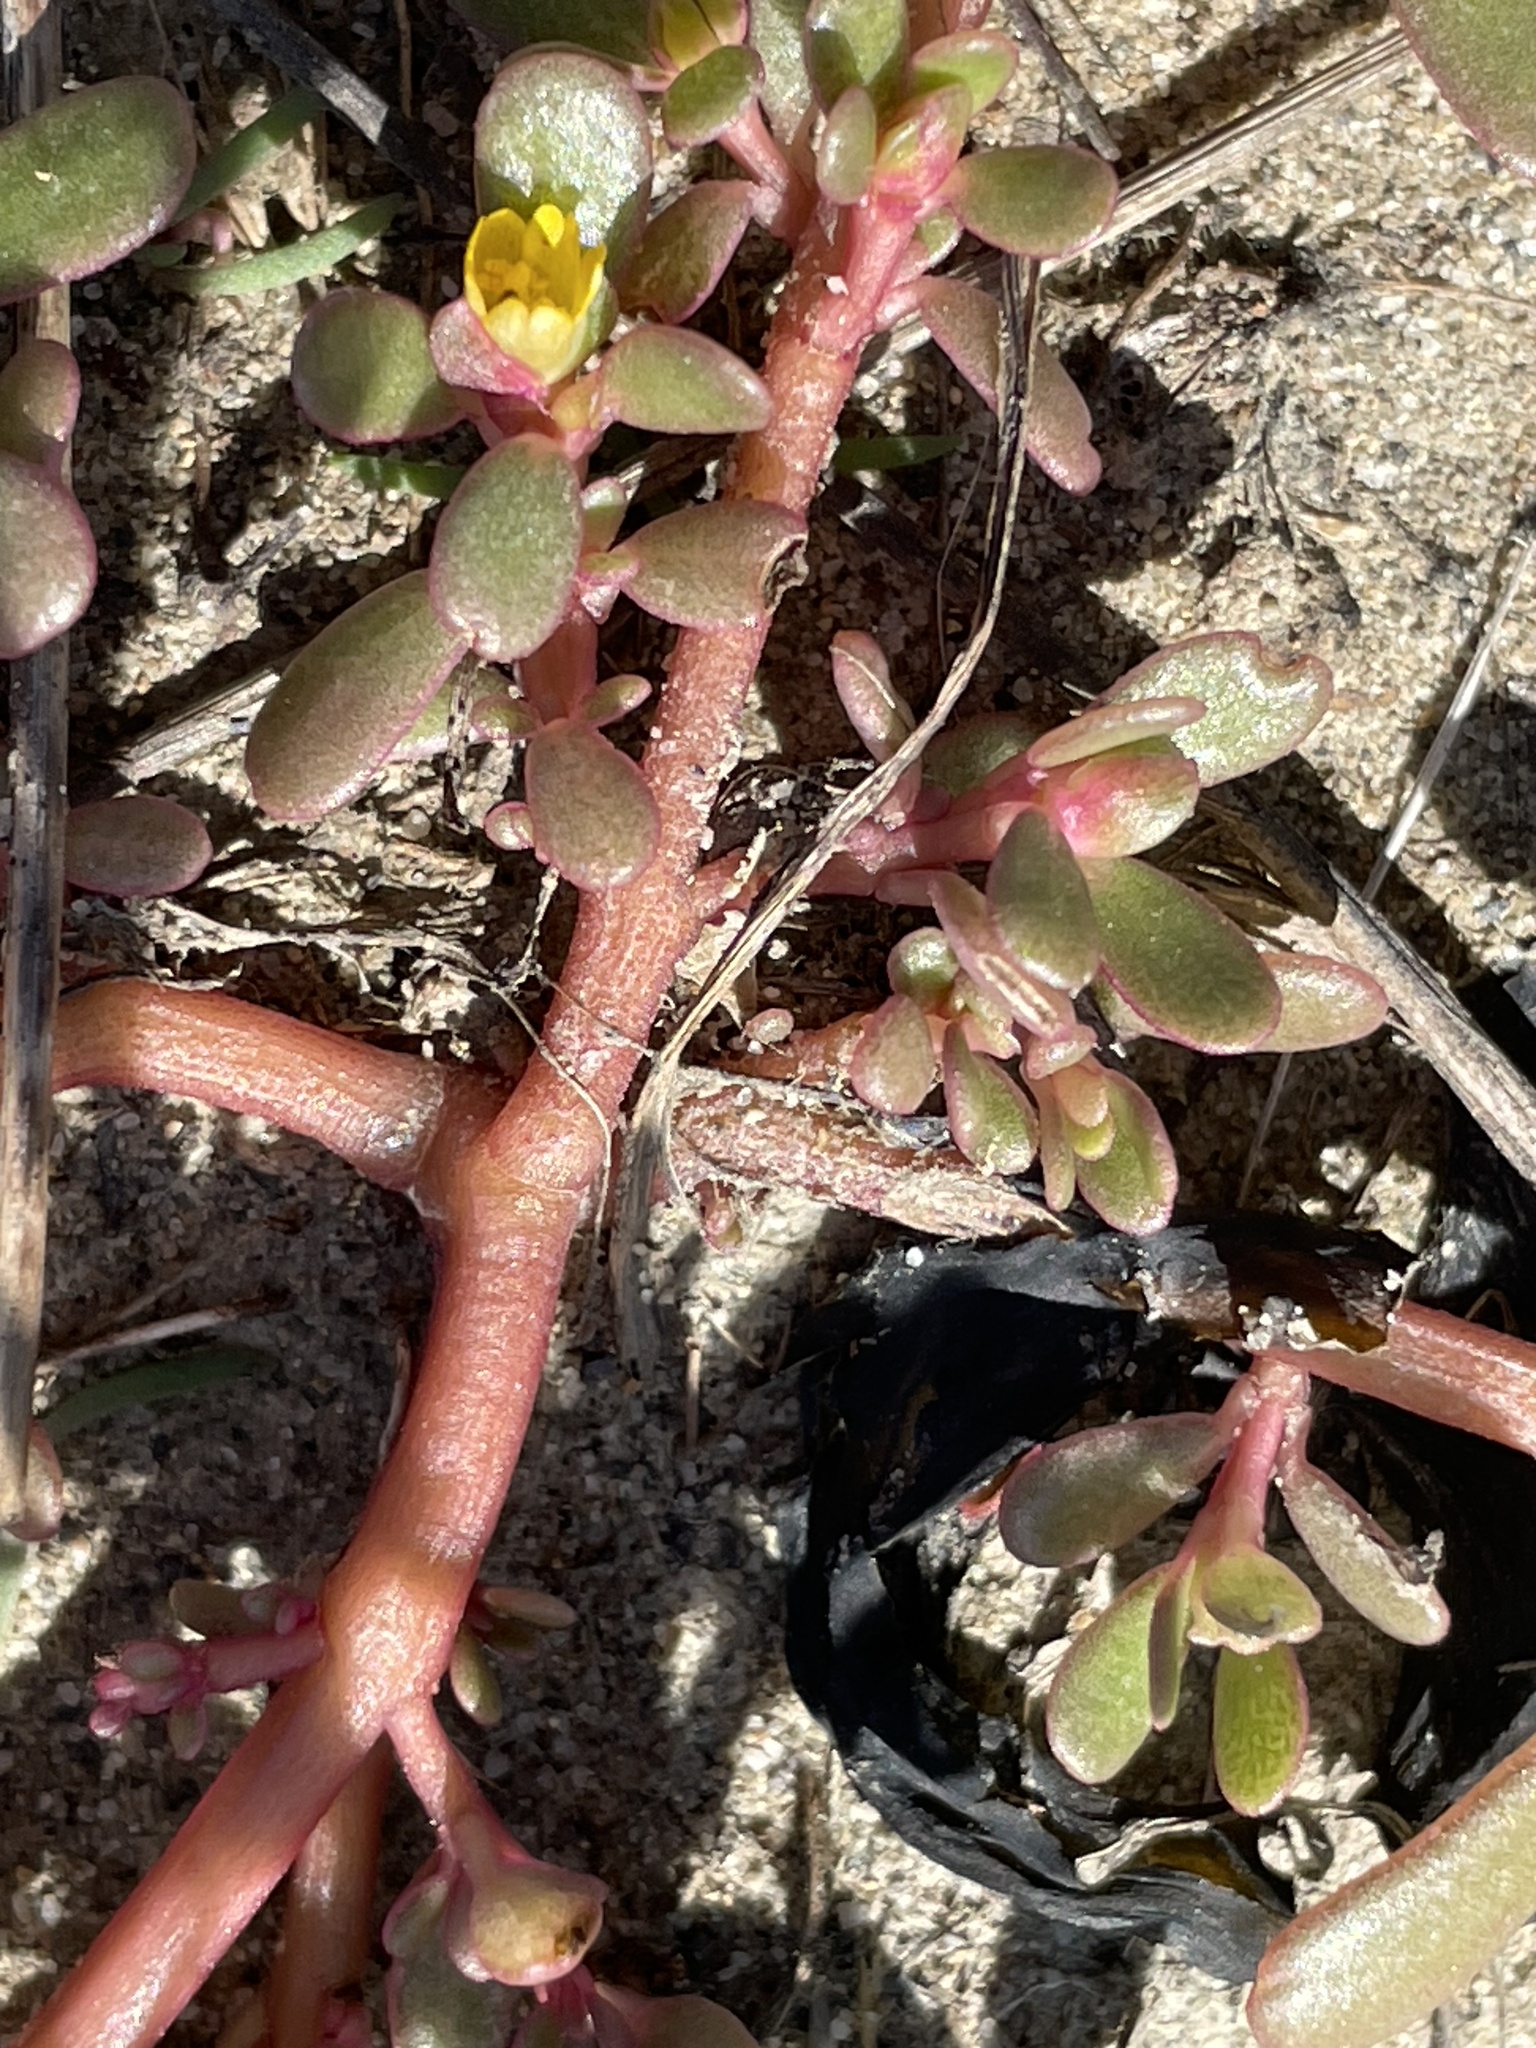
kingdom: Plantae
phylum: Tracheophyta
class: Magnoliopsida
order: Caryophyllales
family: Portulacaceae
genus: Portulaca
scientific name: Portulaca oleracea
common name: Common purslane
